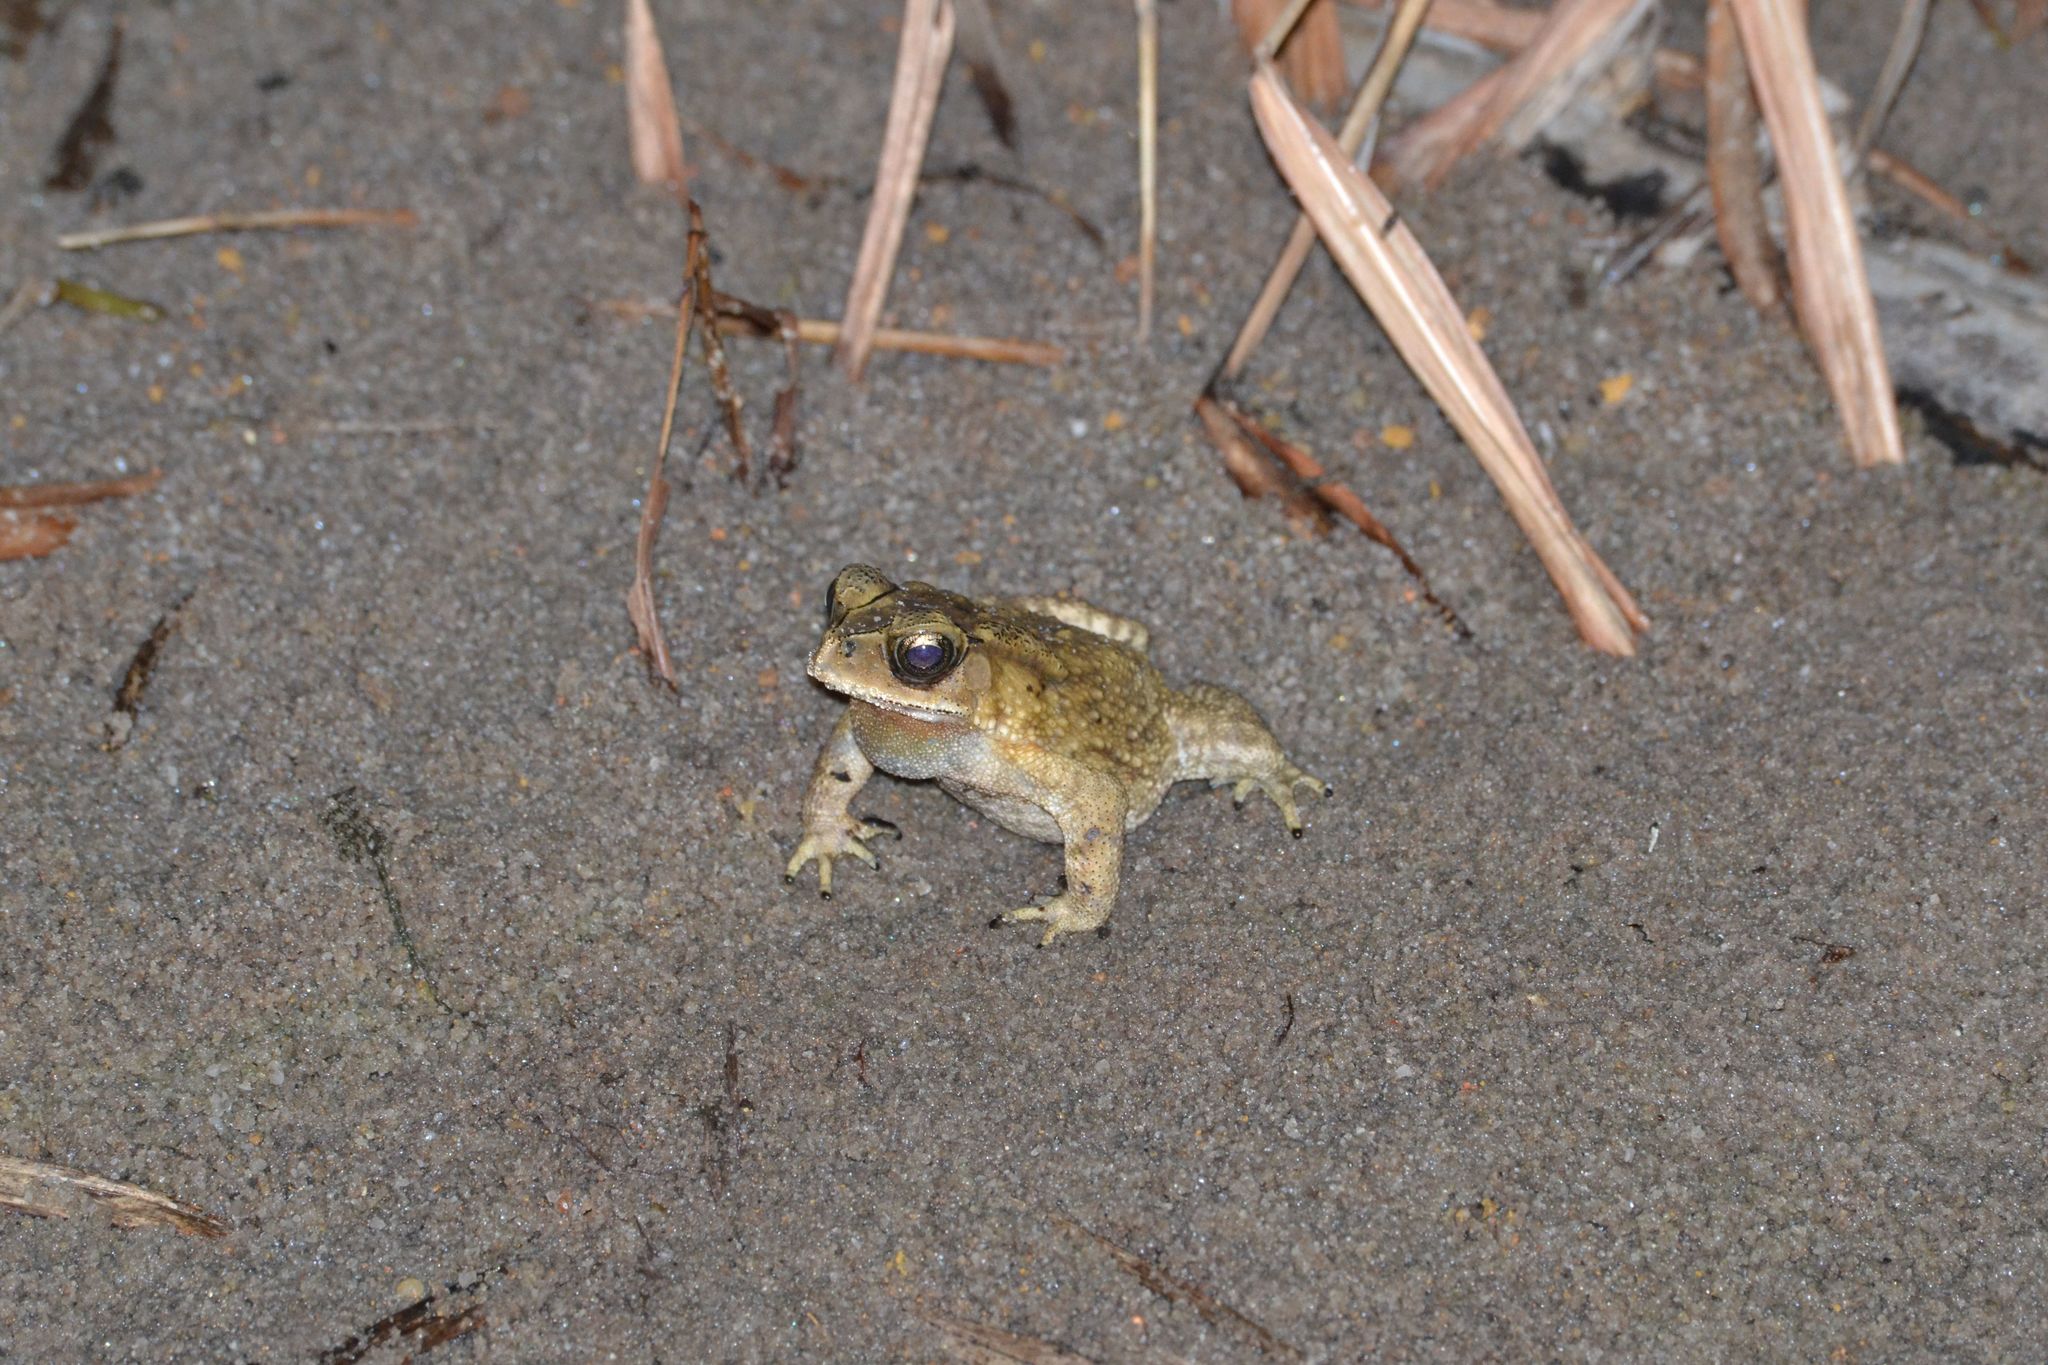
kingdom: Animalia
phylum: Chordata
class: Amphibia
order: Anura
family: Bufonidae
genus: Duttaphrynus
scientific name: Duttaphrynus melanostictus
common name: Common sunda toad
